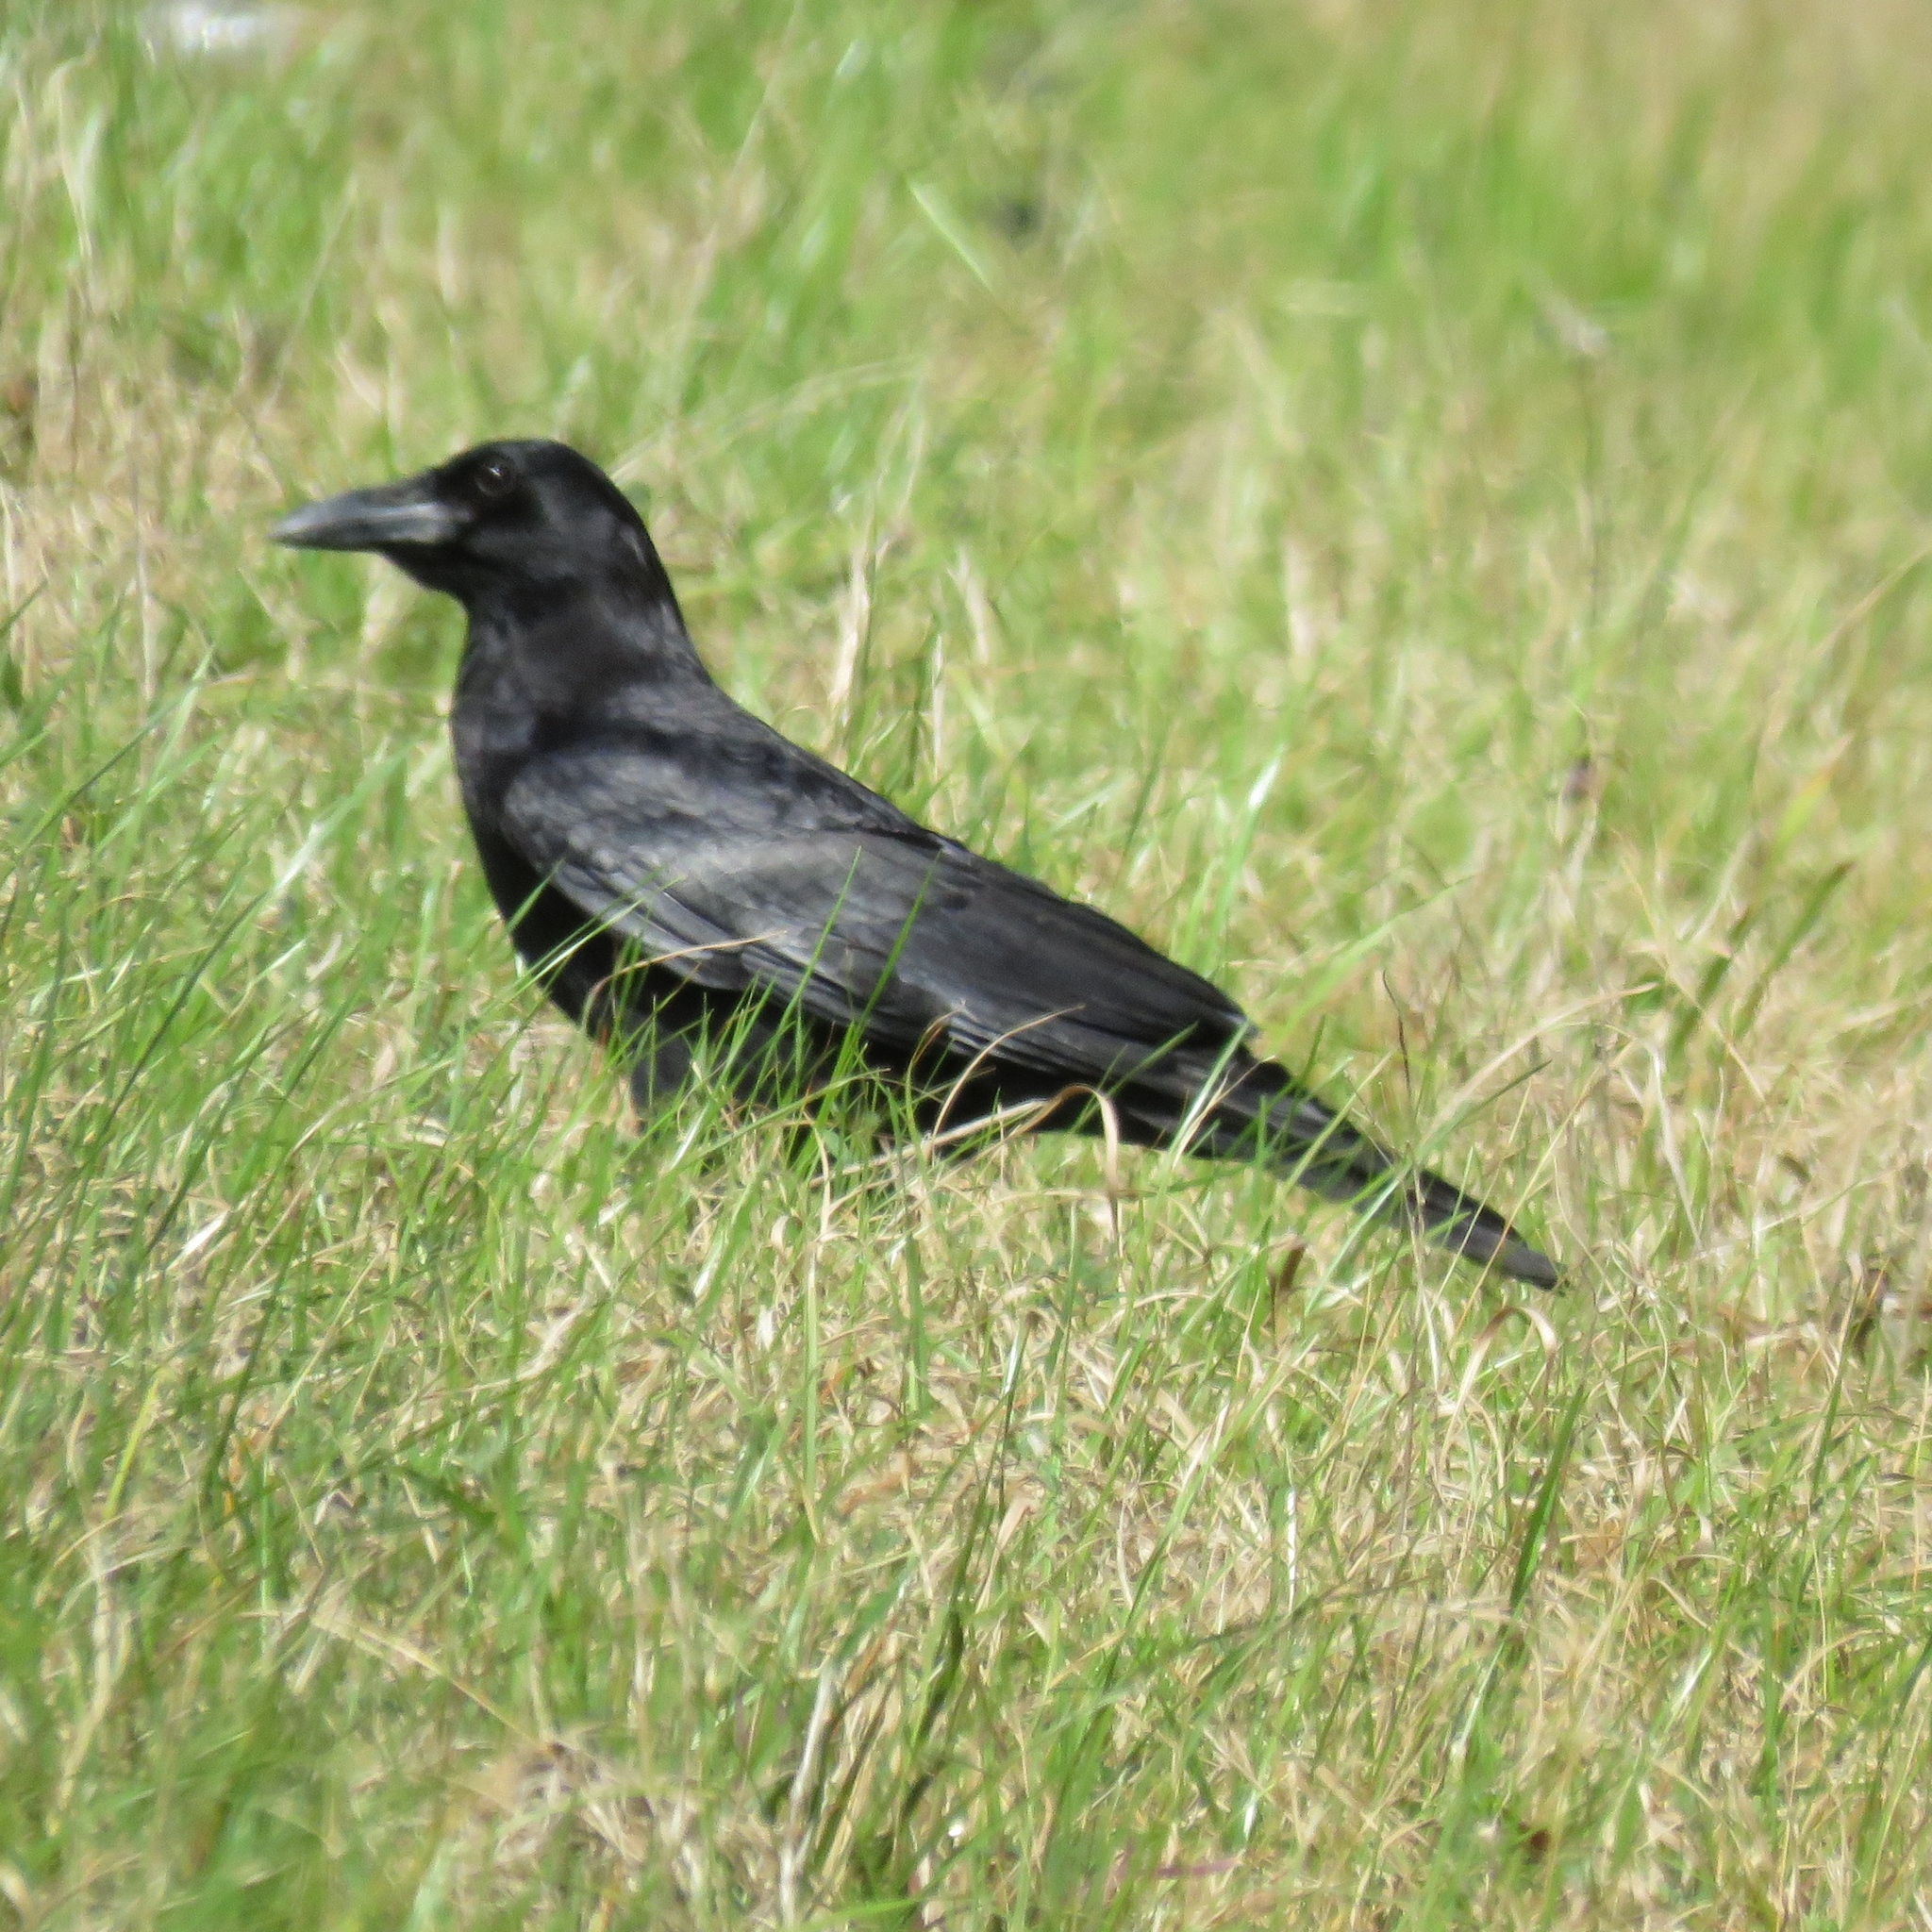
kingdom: Animalia
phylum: Chordata
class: Aves
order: Passeriformes
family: Corvidae
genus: Corvus
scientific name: Corvus brachyrhynchos
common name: American crow
